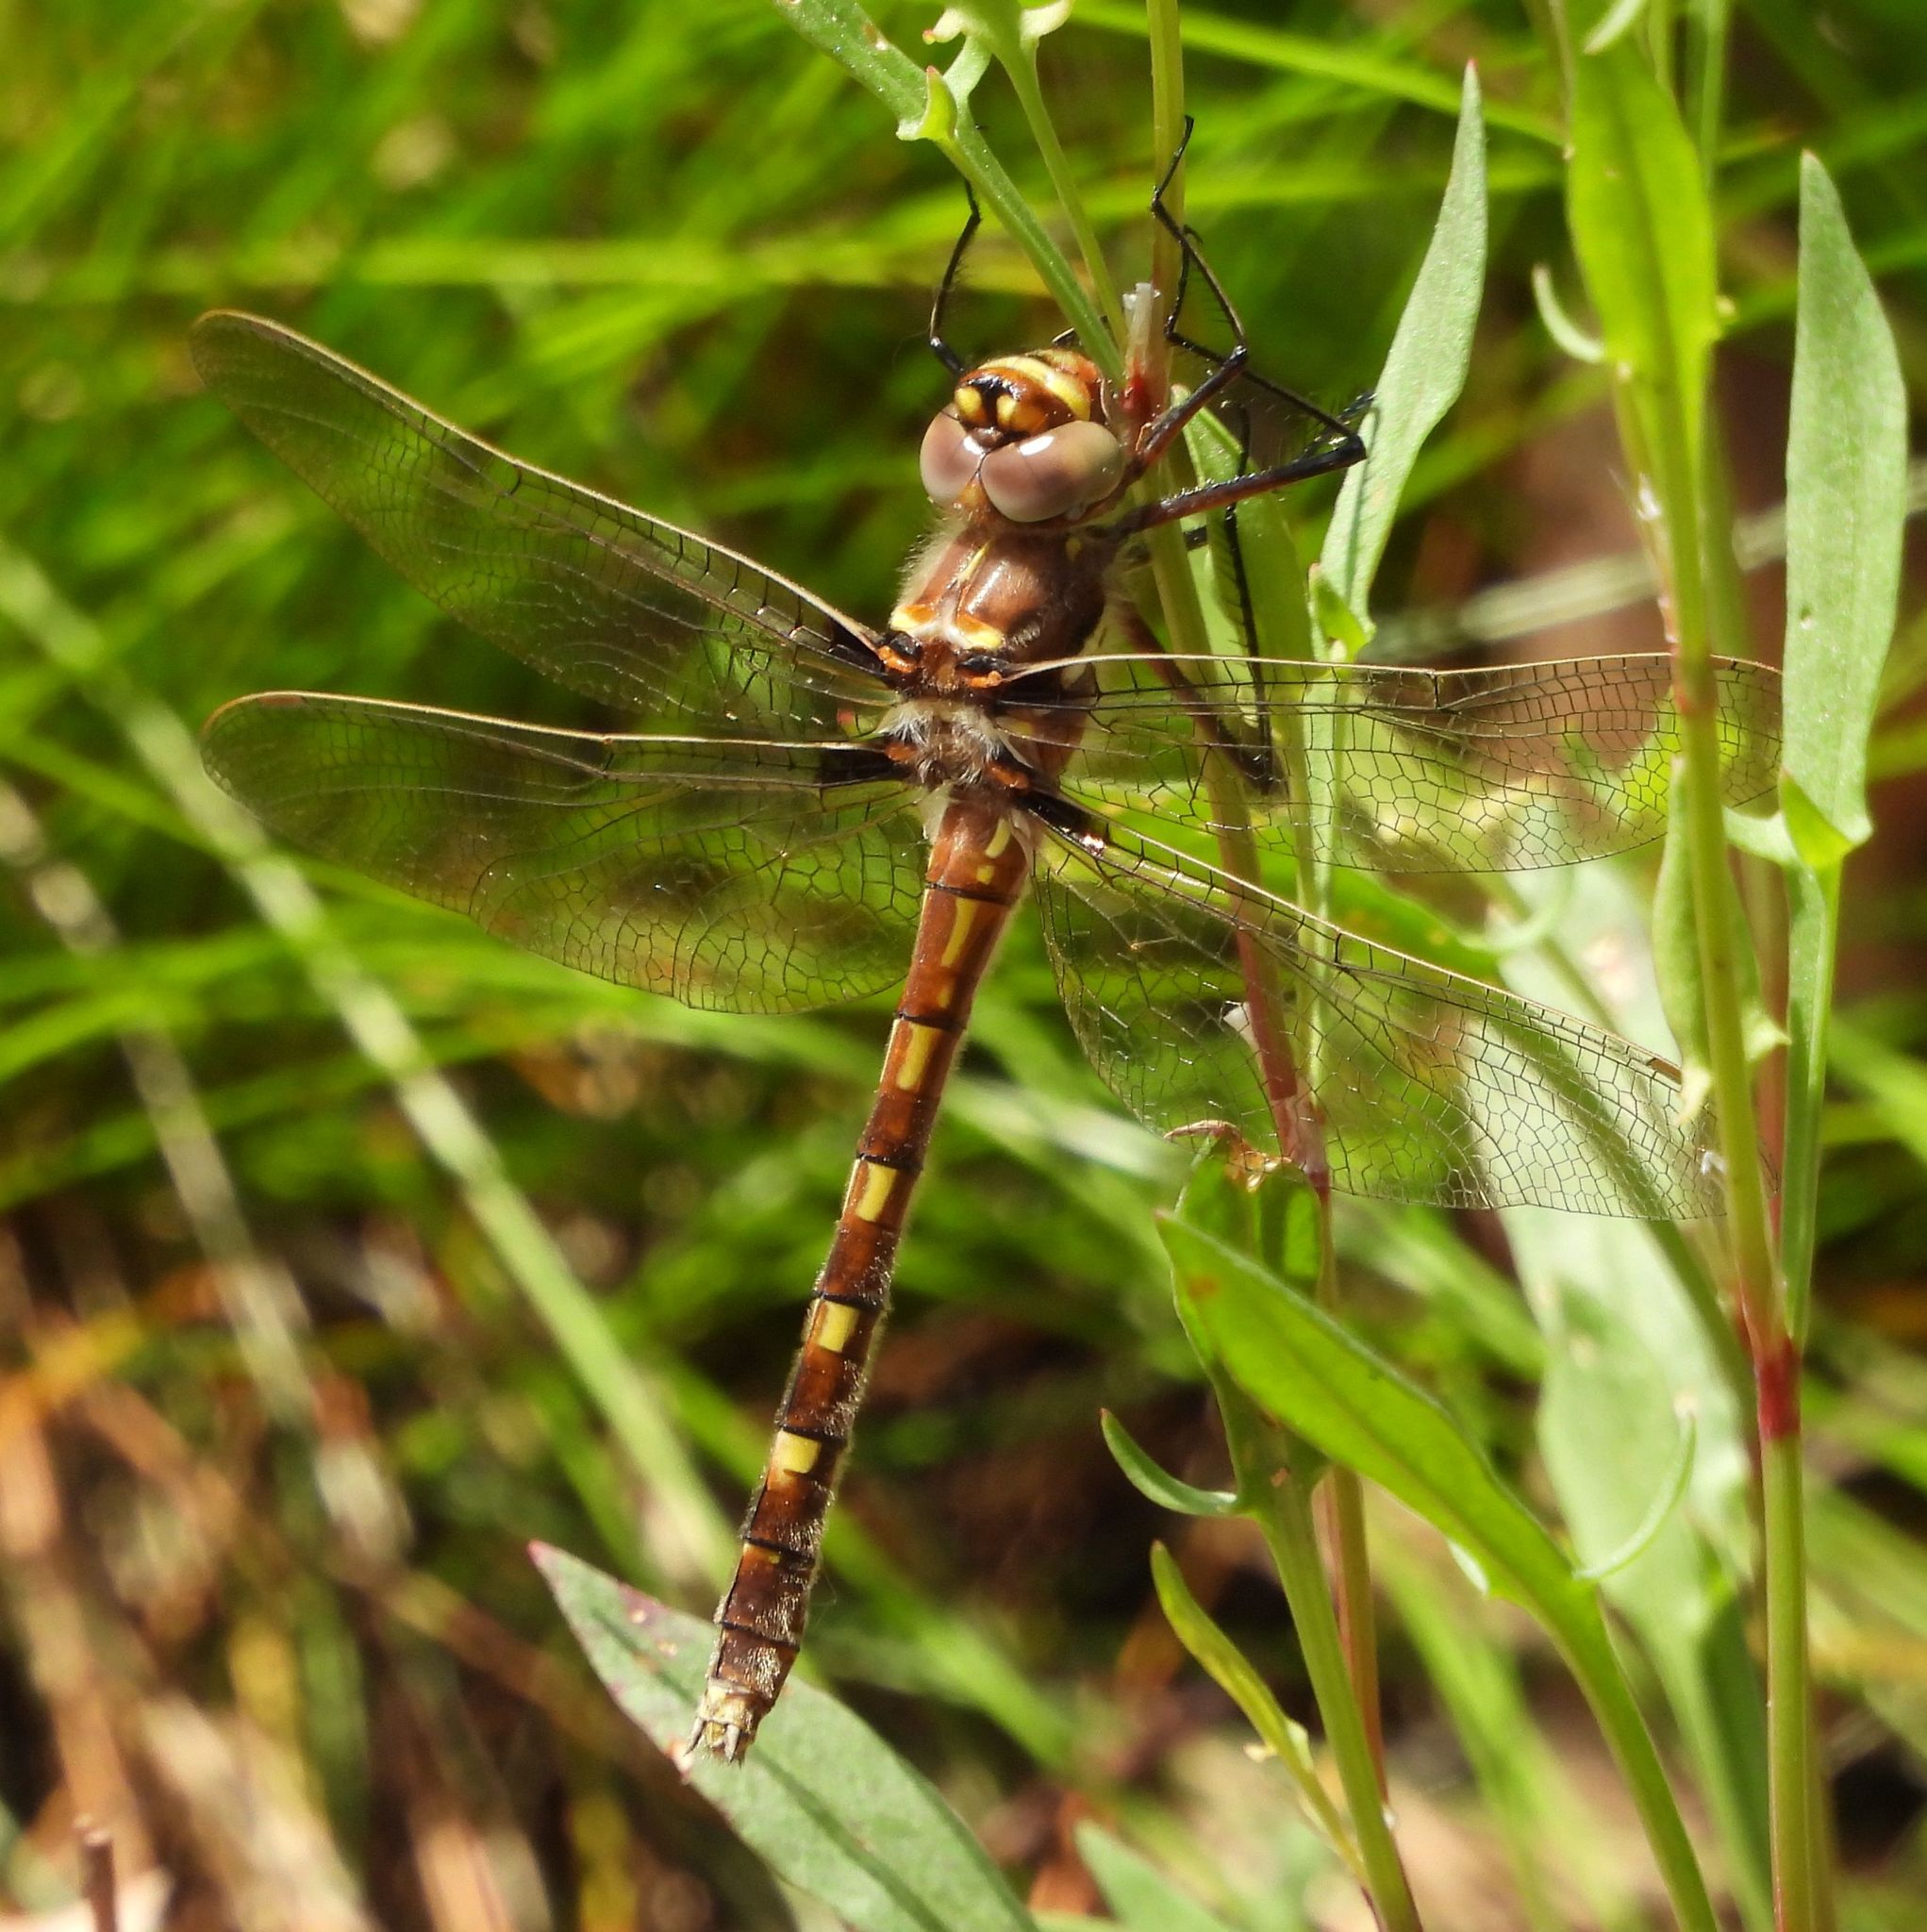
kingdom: Animalia
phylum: Arthropoda
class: Insecta
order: Odonata
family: Macromiidae
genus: Didymops
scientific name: Didymops transversa
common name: Stream cruiser
